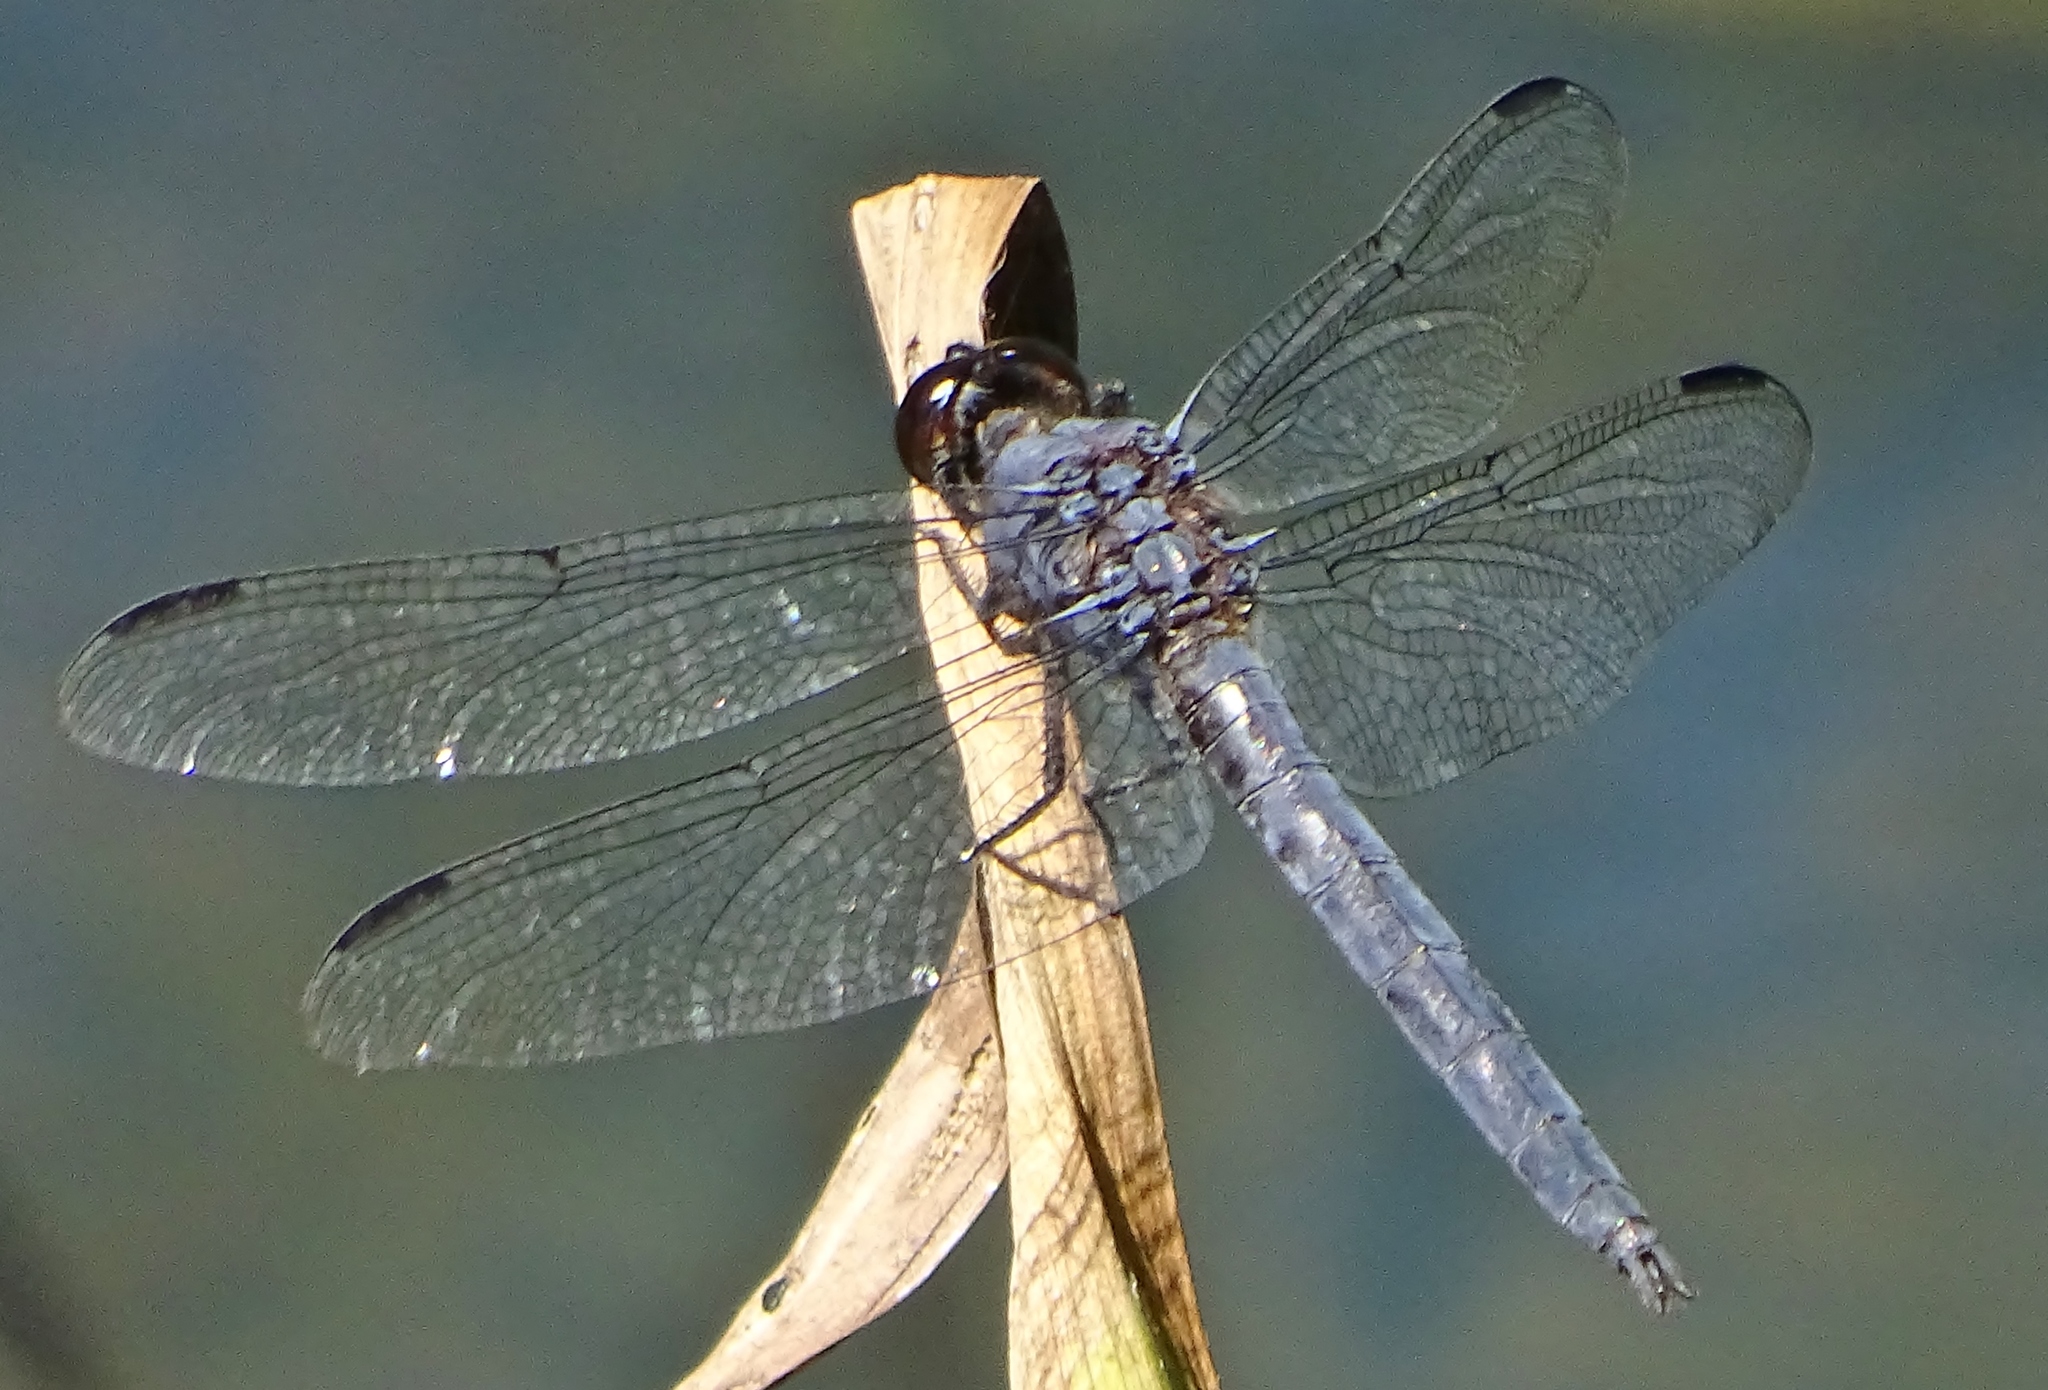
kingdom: Animalia
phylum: Arthropoda
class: Insecta
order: Odonata
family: Libellulidae
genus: Libellula
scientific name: Libellula incesta
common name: Slaty skimmer
